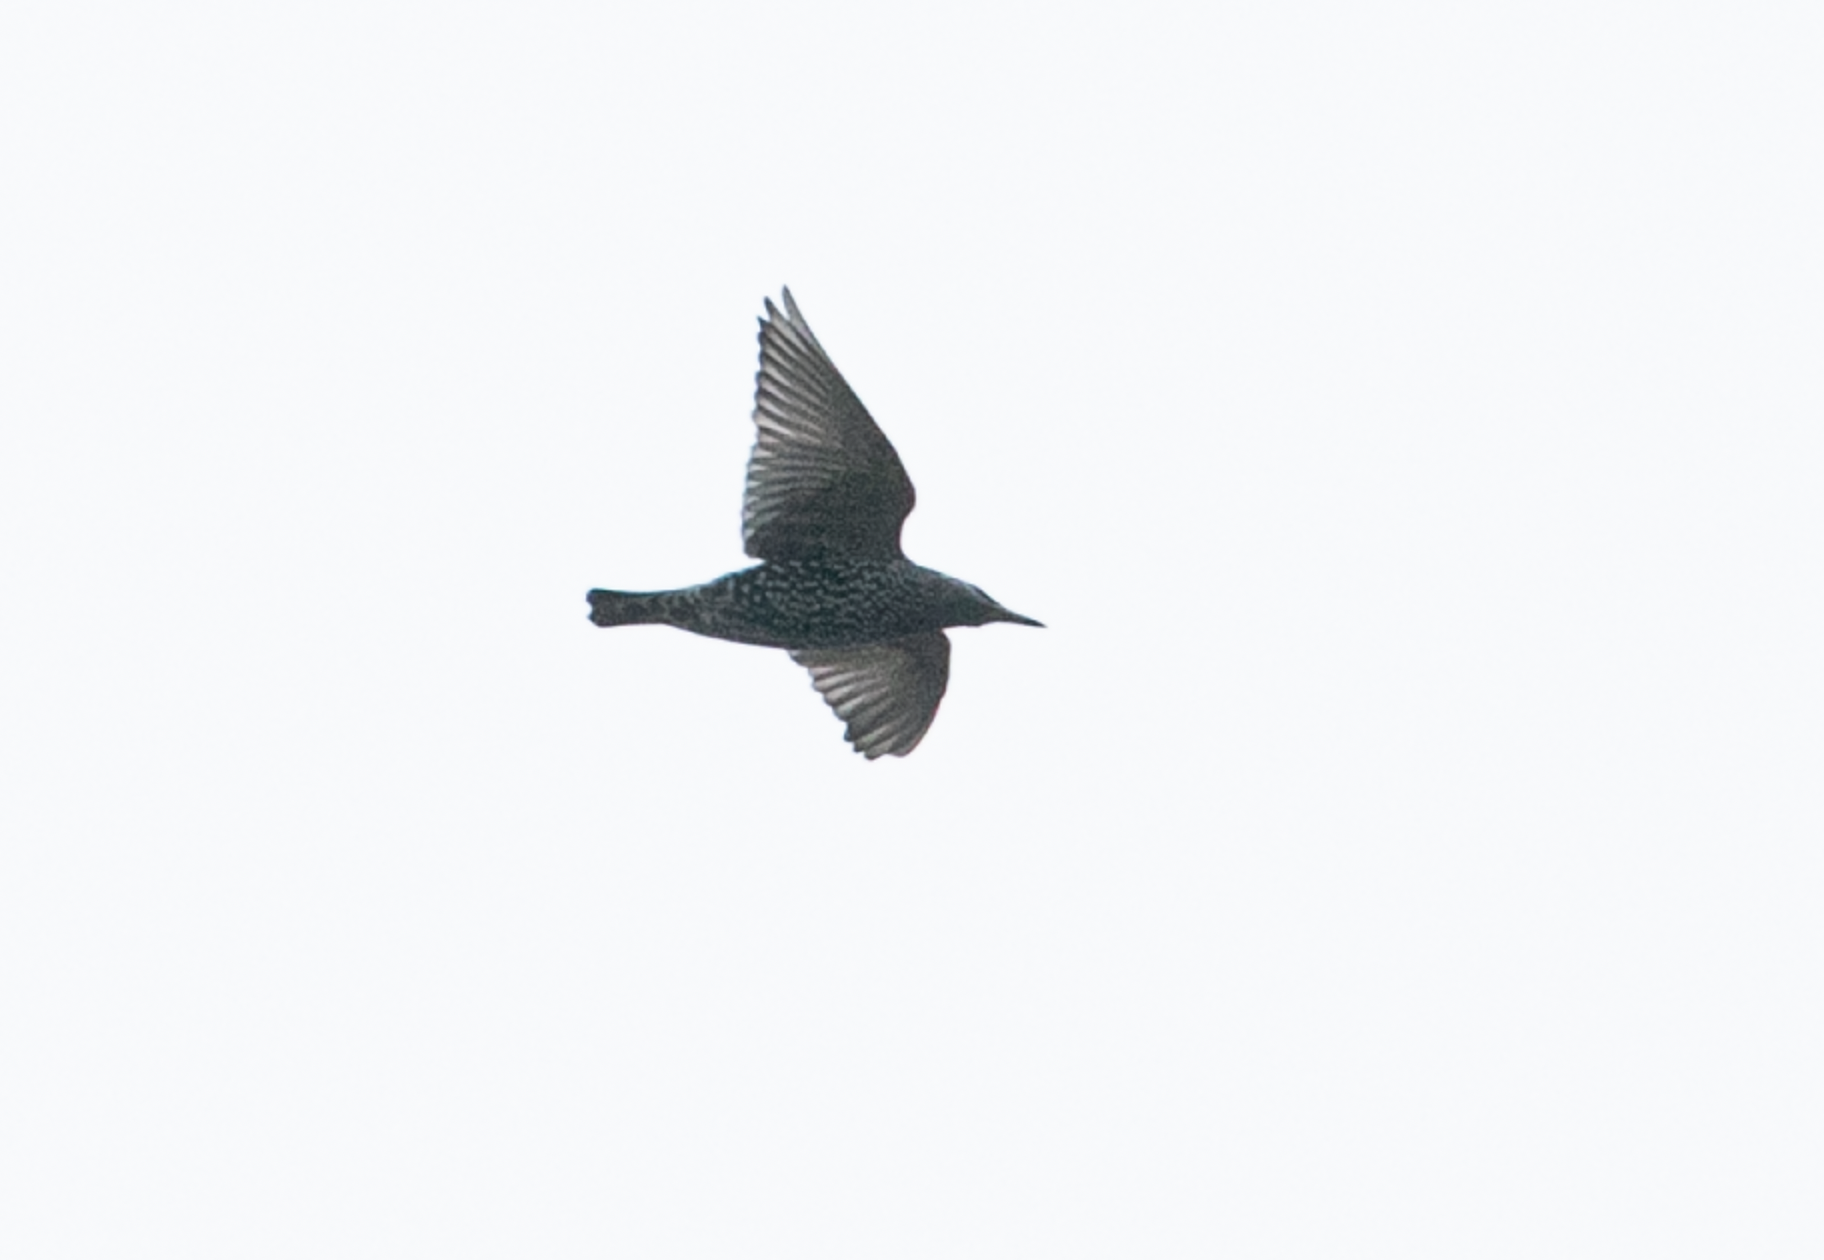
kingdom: Animalia
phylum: Chordata
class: Aves
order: Passeriformes
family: Sturnidae
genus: Sturnus
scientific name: Sturnus vulgaris
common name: Common starling
